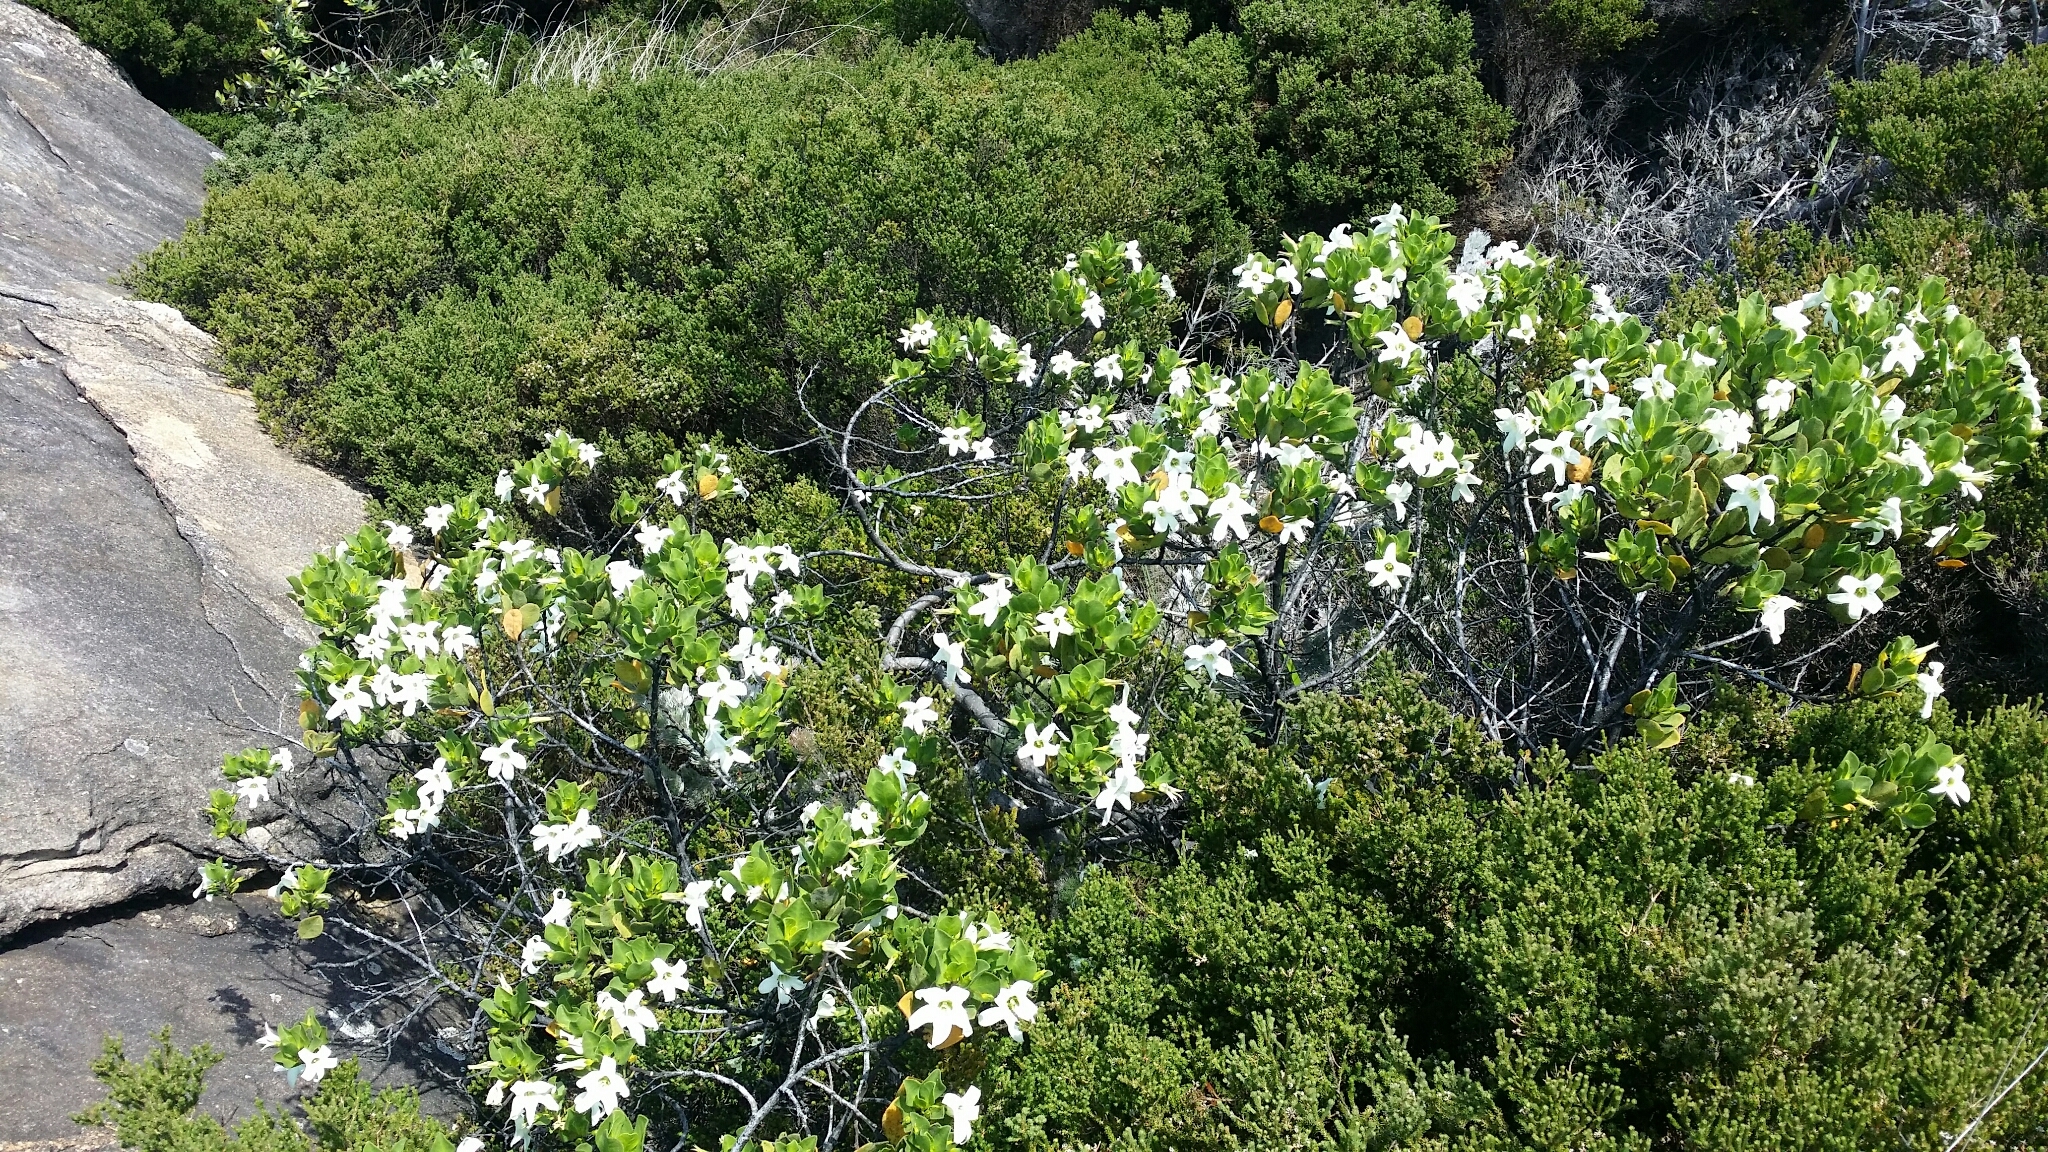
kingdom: Plantae
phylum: Tracheophyta
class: Magnoliopsida
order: Solanales
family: Solanaceae
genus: Anthocercis
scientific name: Anthocercis viscosa
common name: Sticky tailflower
